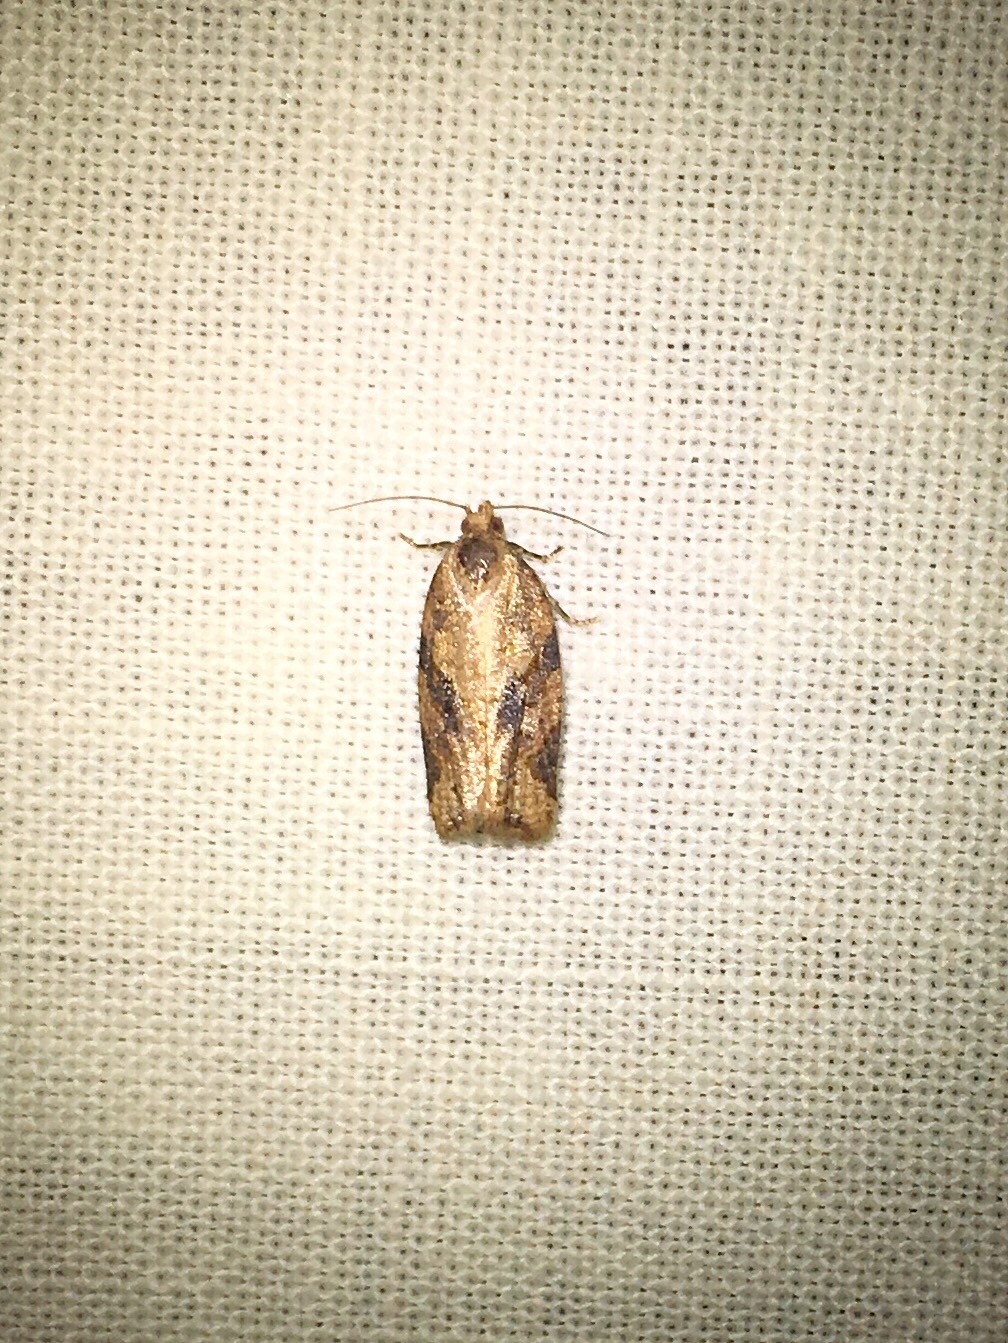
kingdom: Animalia
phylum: Arthropoda
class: Insecta
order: Lepidoptera
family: Tortricidae
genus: Argyrotaenia
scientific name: Argyrotaenia ivana
